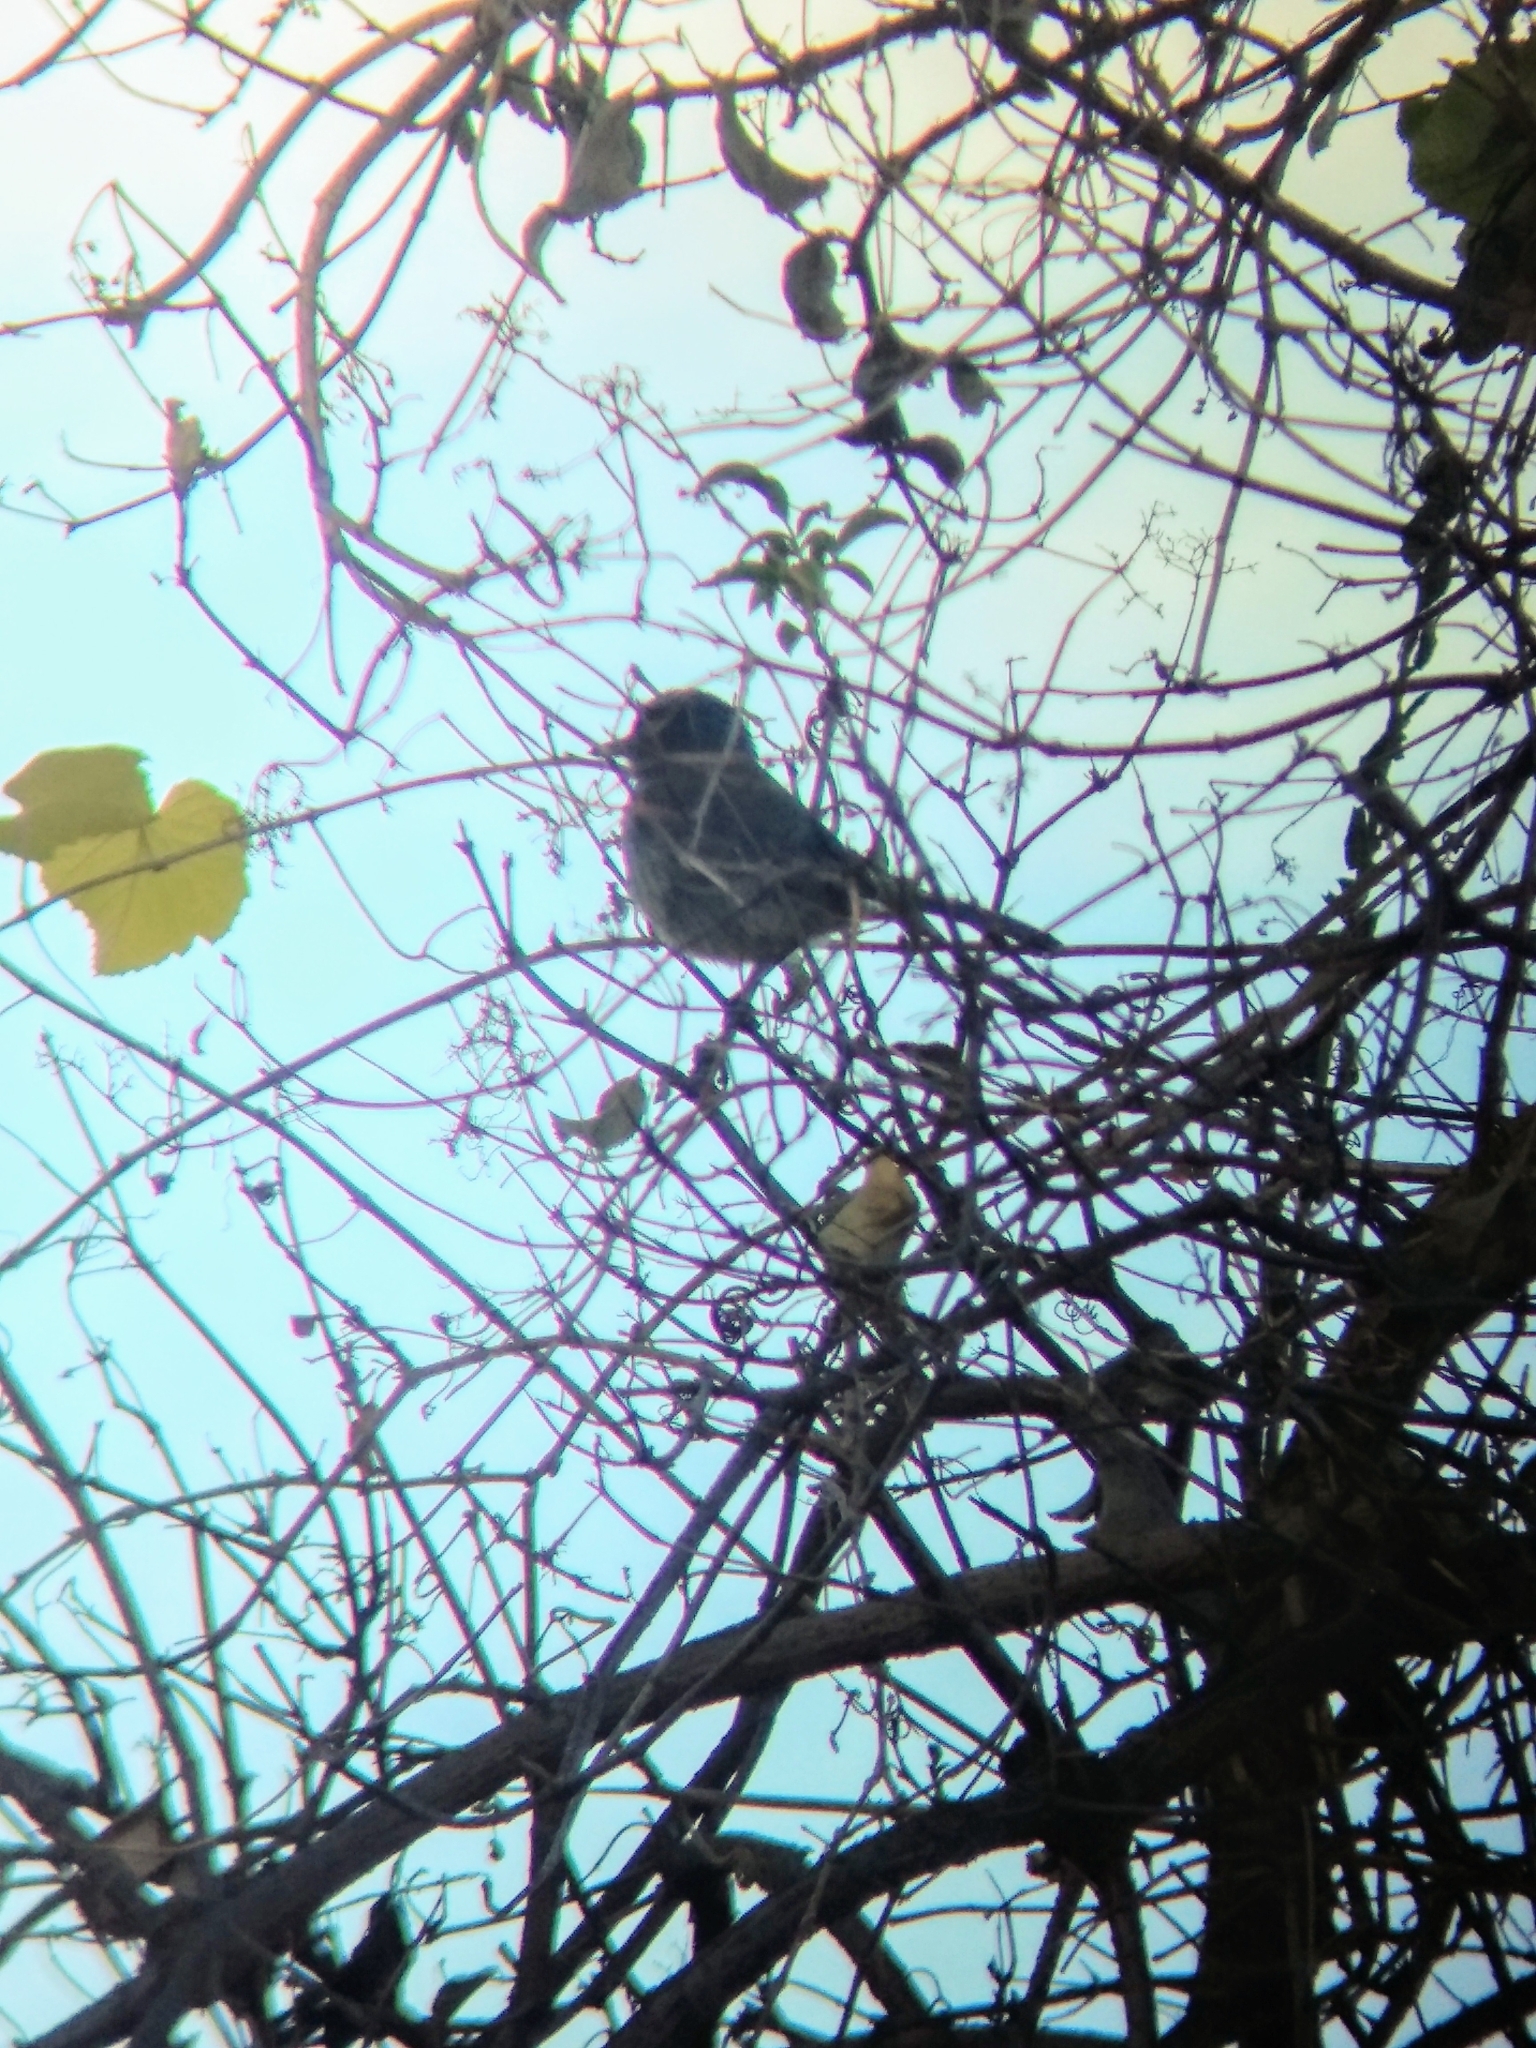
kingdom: Animalia
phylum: Chordata
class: Aves
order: Passeriformes
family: Corvidae
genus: Aphelocoma
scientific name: Aphelocoma californica
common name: California scrub-jay
